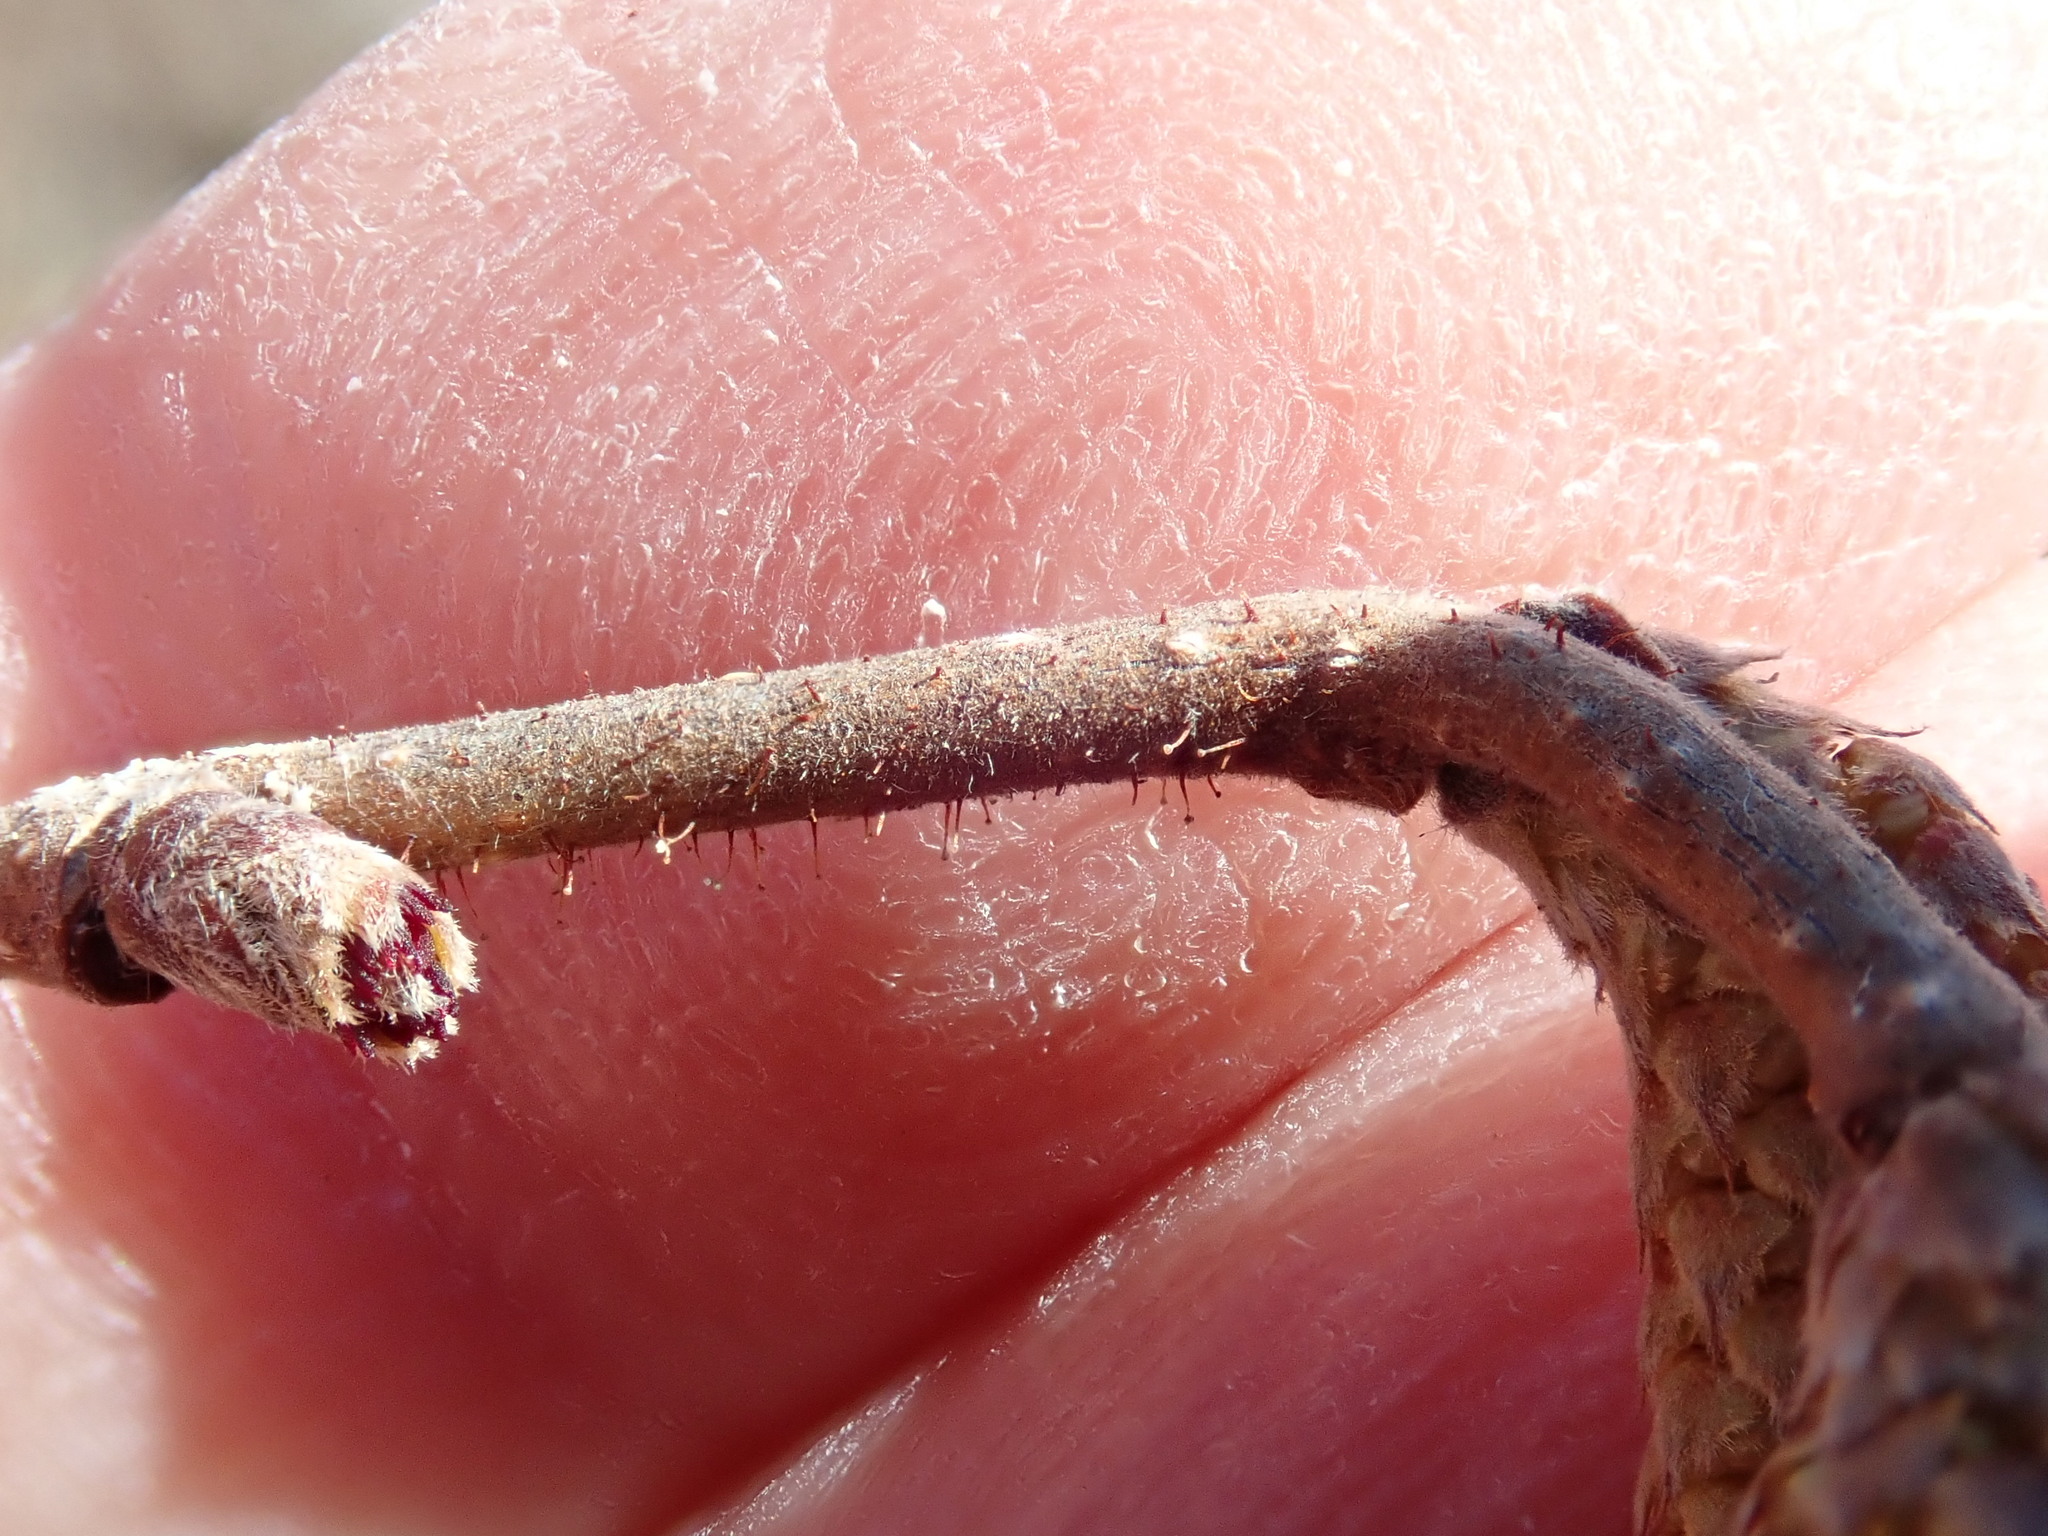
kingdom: Plantae
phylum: Tracheophyta
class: Magnoliopsida
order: Fagales
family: Betulaceae
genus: Corylus
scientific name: Corylus americana
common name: American hazel
